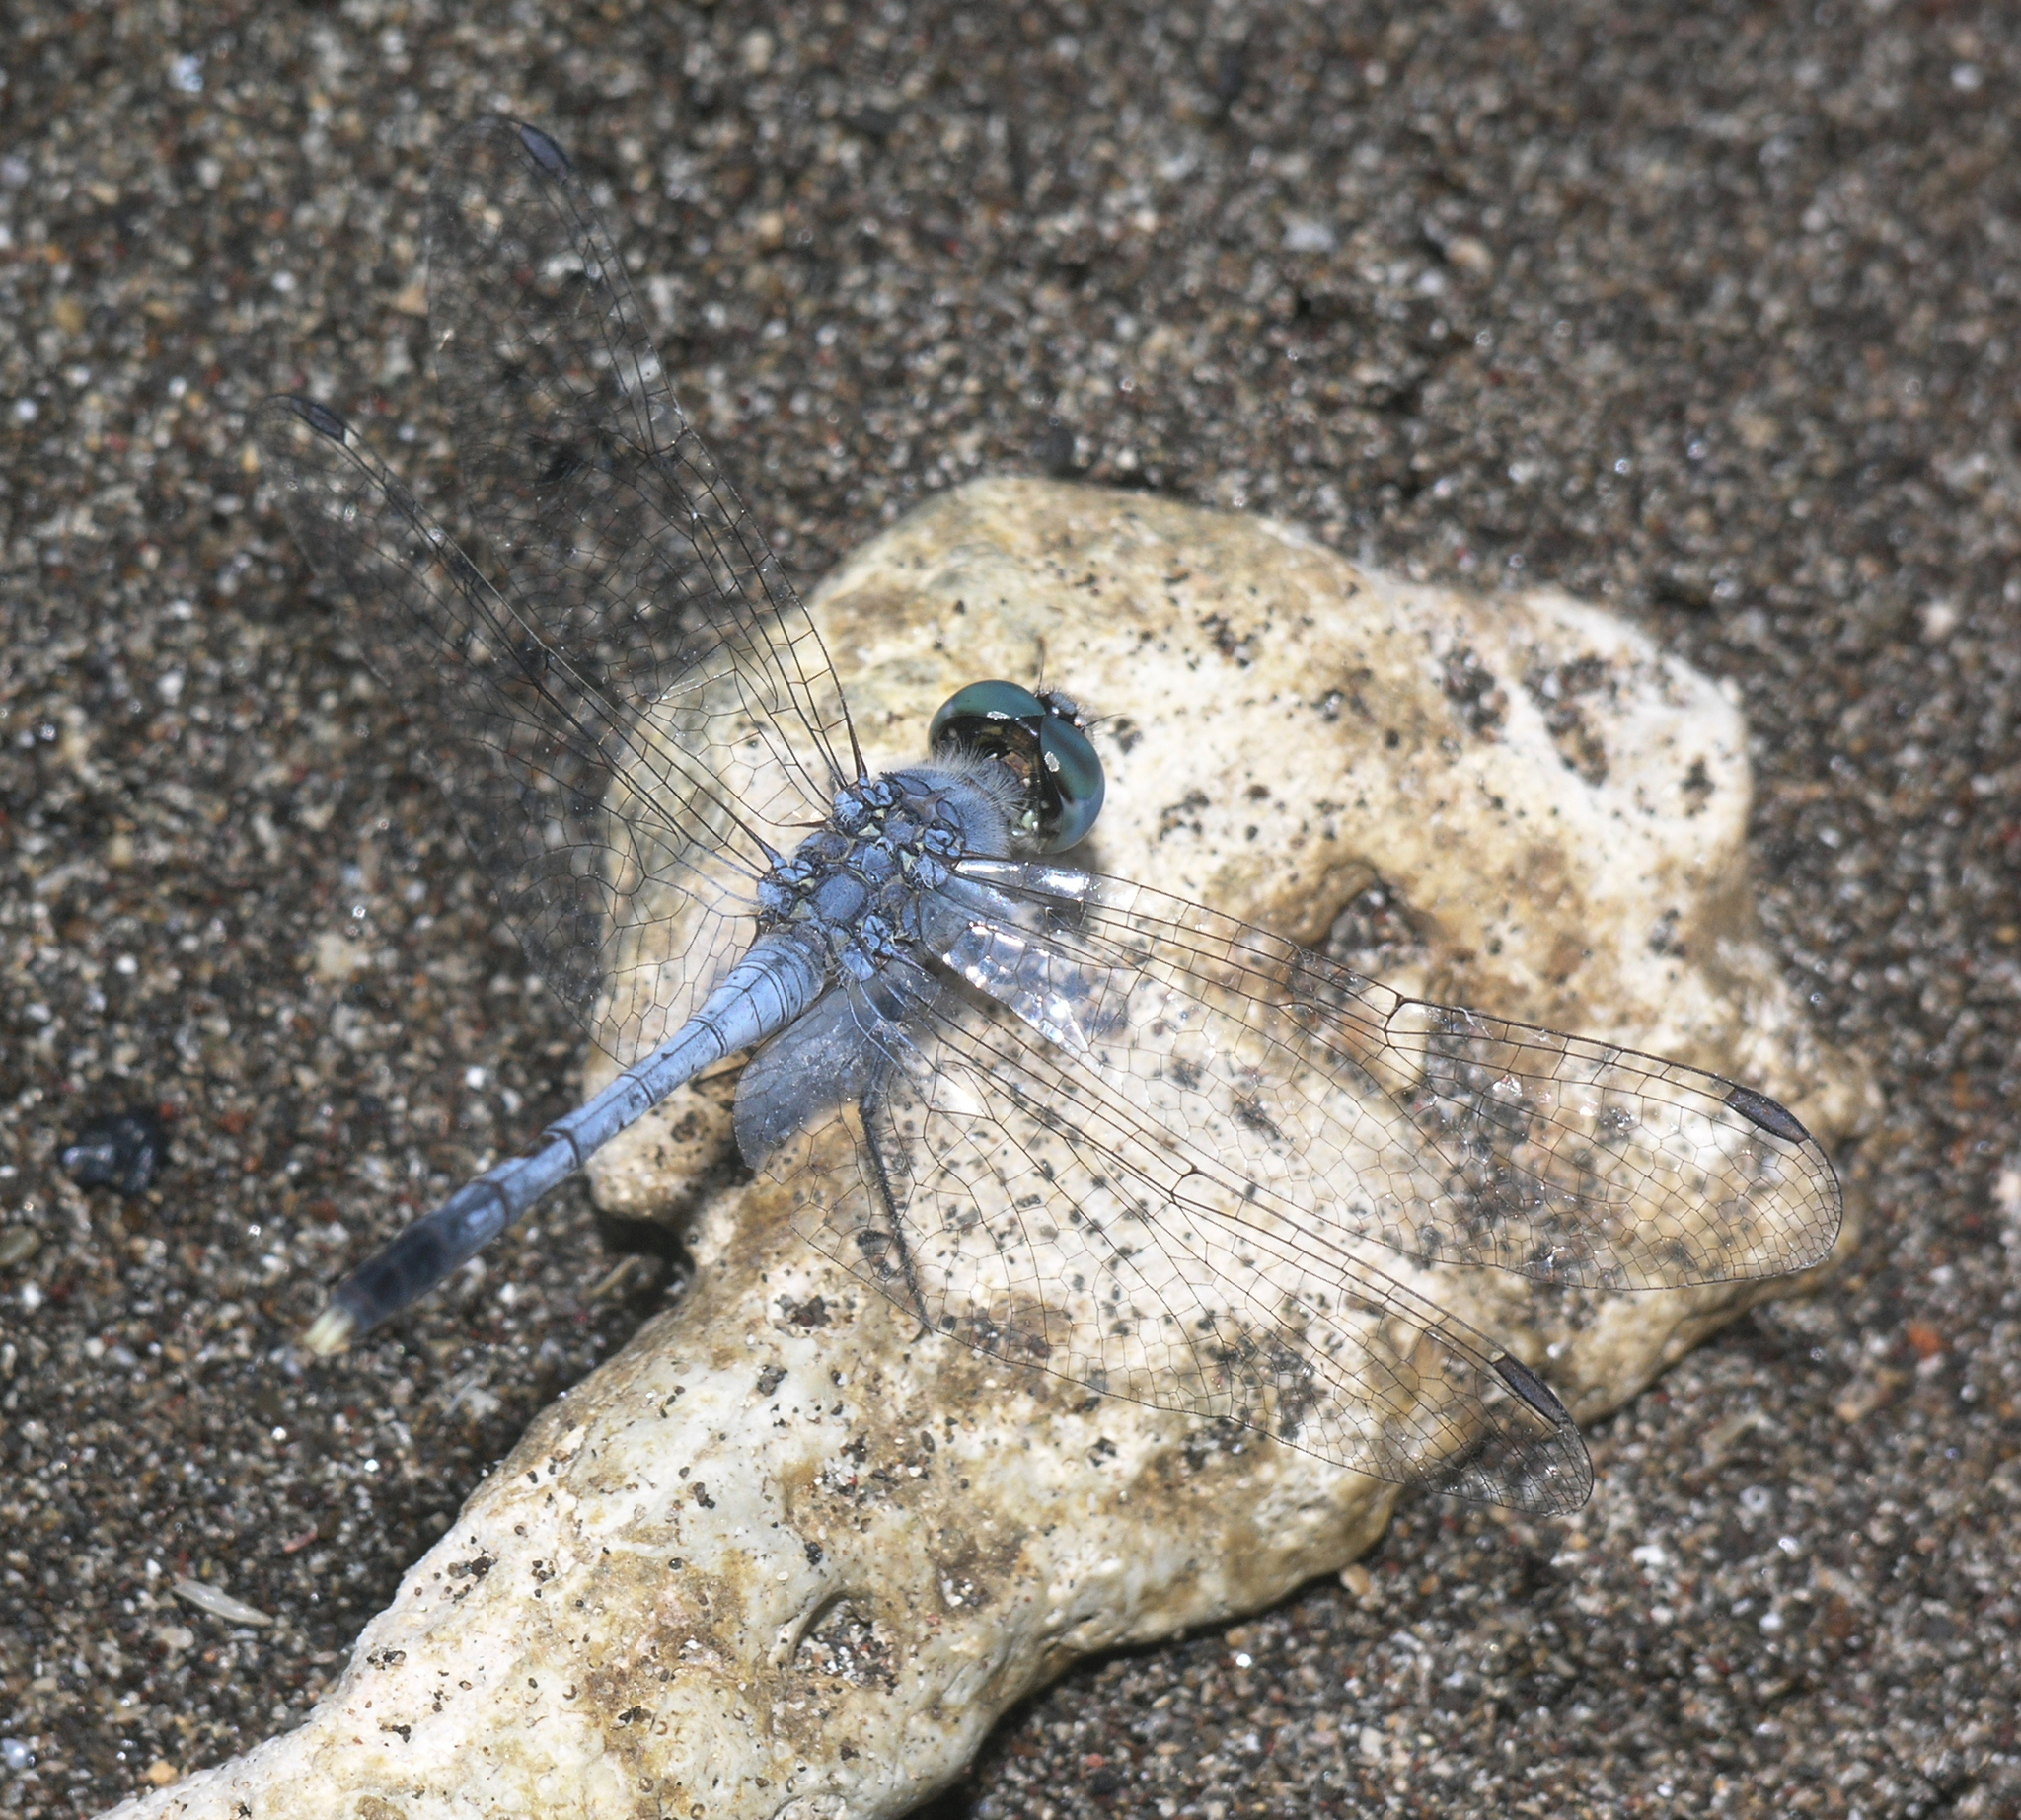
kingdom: Animalia
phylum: Arthropoda
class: Insecta
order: Odonata
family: Libellulidae
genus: Diplacodes
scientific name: Diplacodes trivialis
